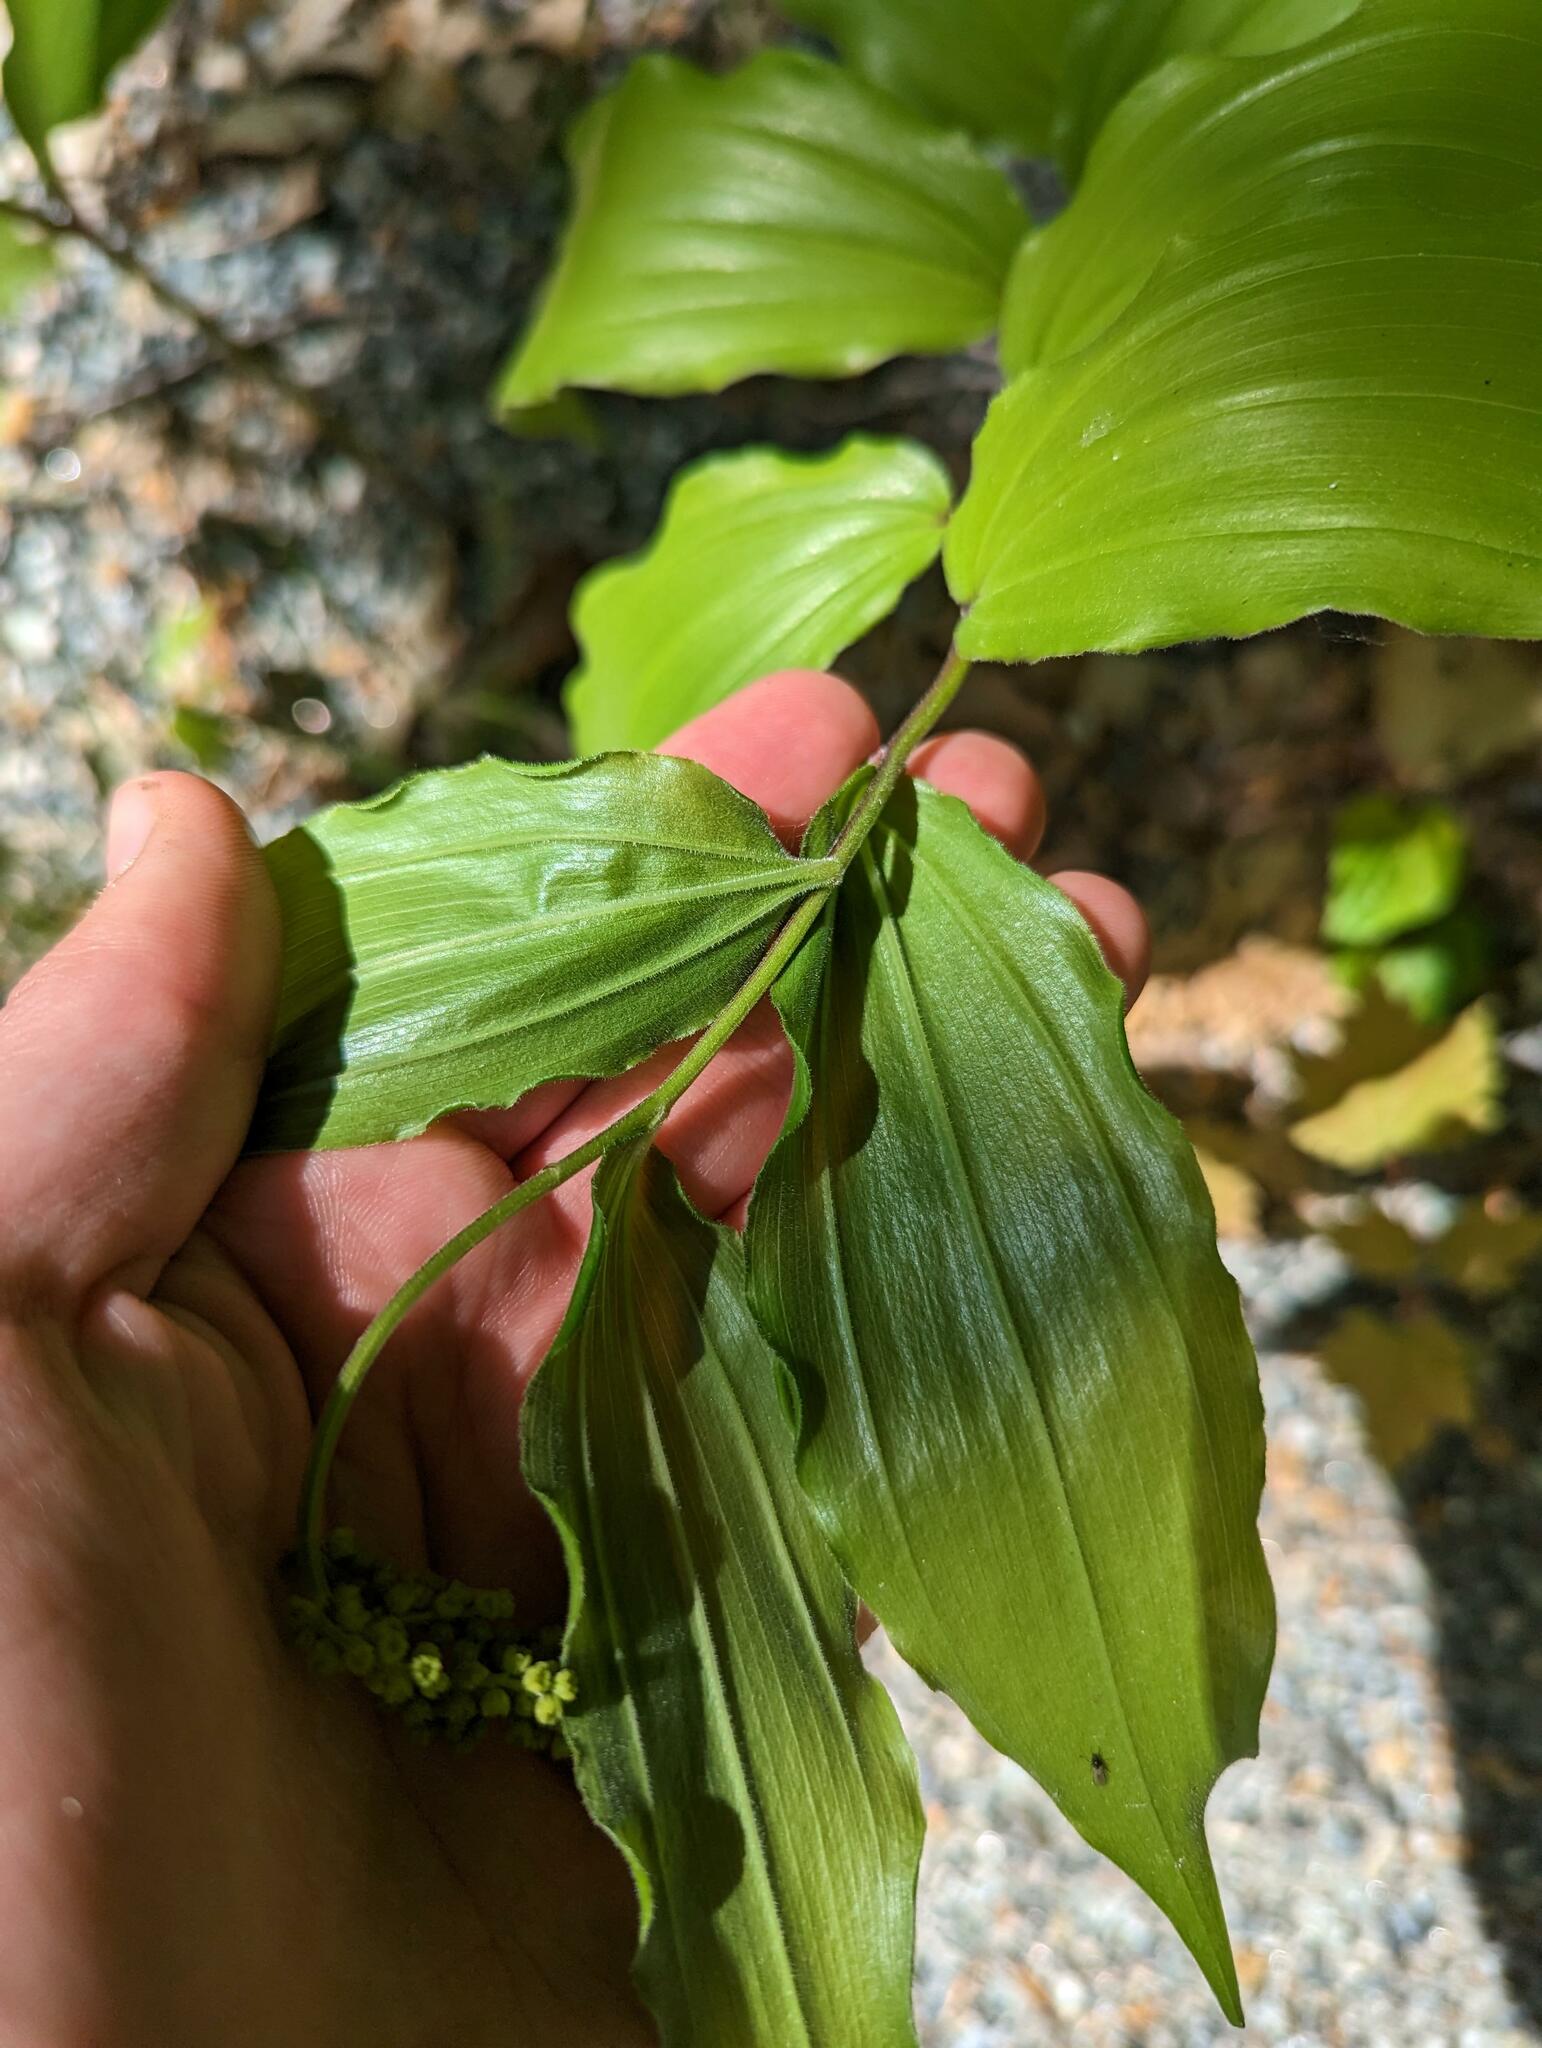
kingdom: Plantae
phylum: Tracheophyta
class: Liliopsida
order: Asparagales
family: Asparagaceae
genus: Maianthemum
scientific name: Maianthemum racemosum
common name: False spikenard
